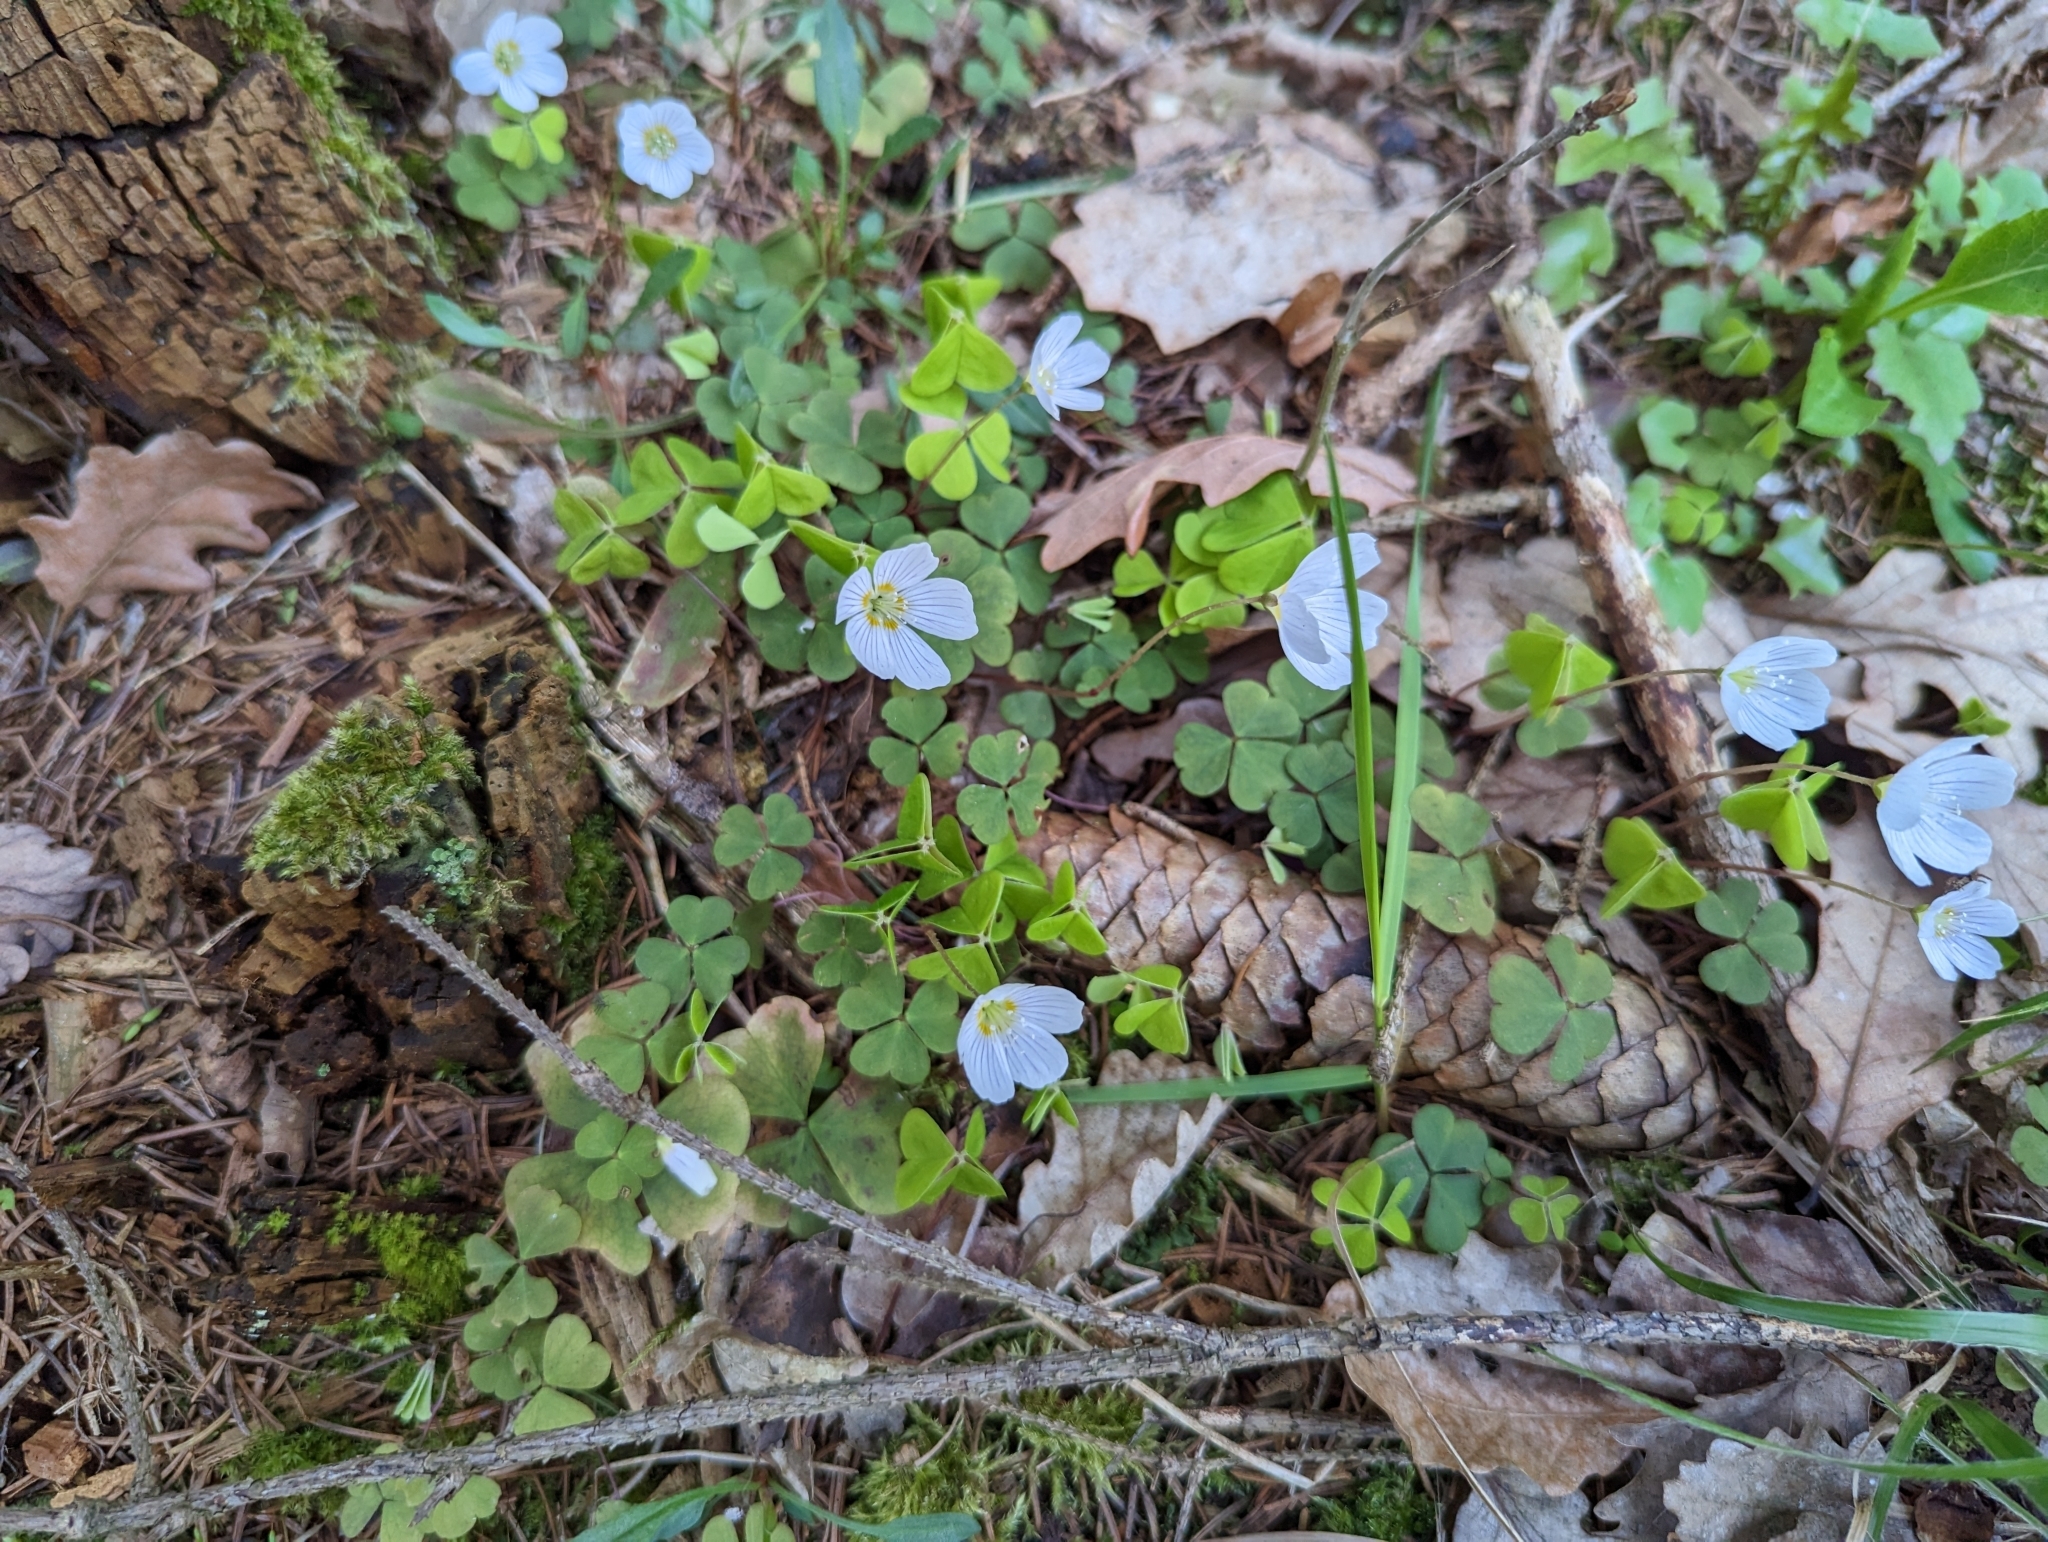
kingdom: Plantae
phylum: Tracheophyta
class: Magnoliopsida
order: Oxalidales
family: Oxalidaceae
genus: Oxalis
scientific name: Oxalis acetosella
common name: Wood-sorrel
